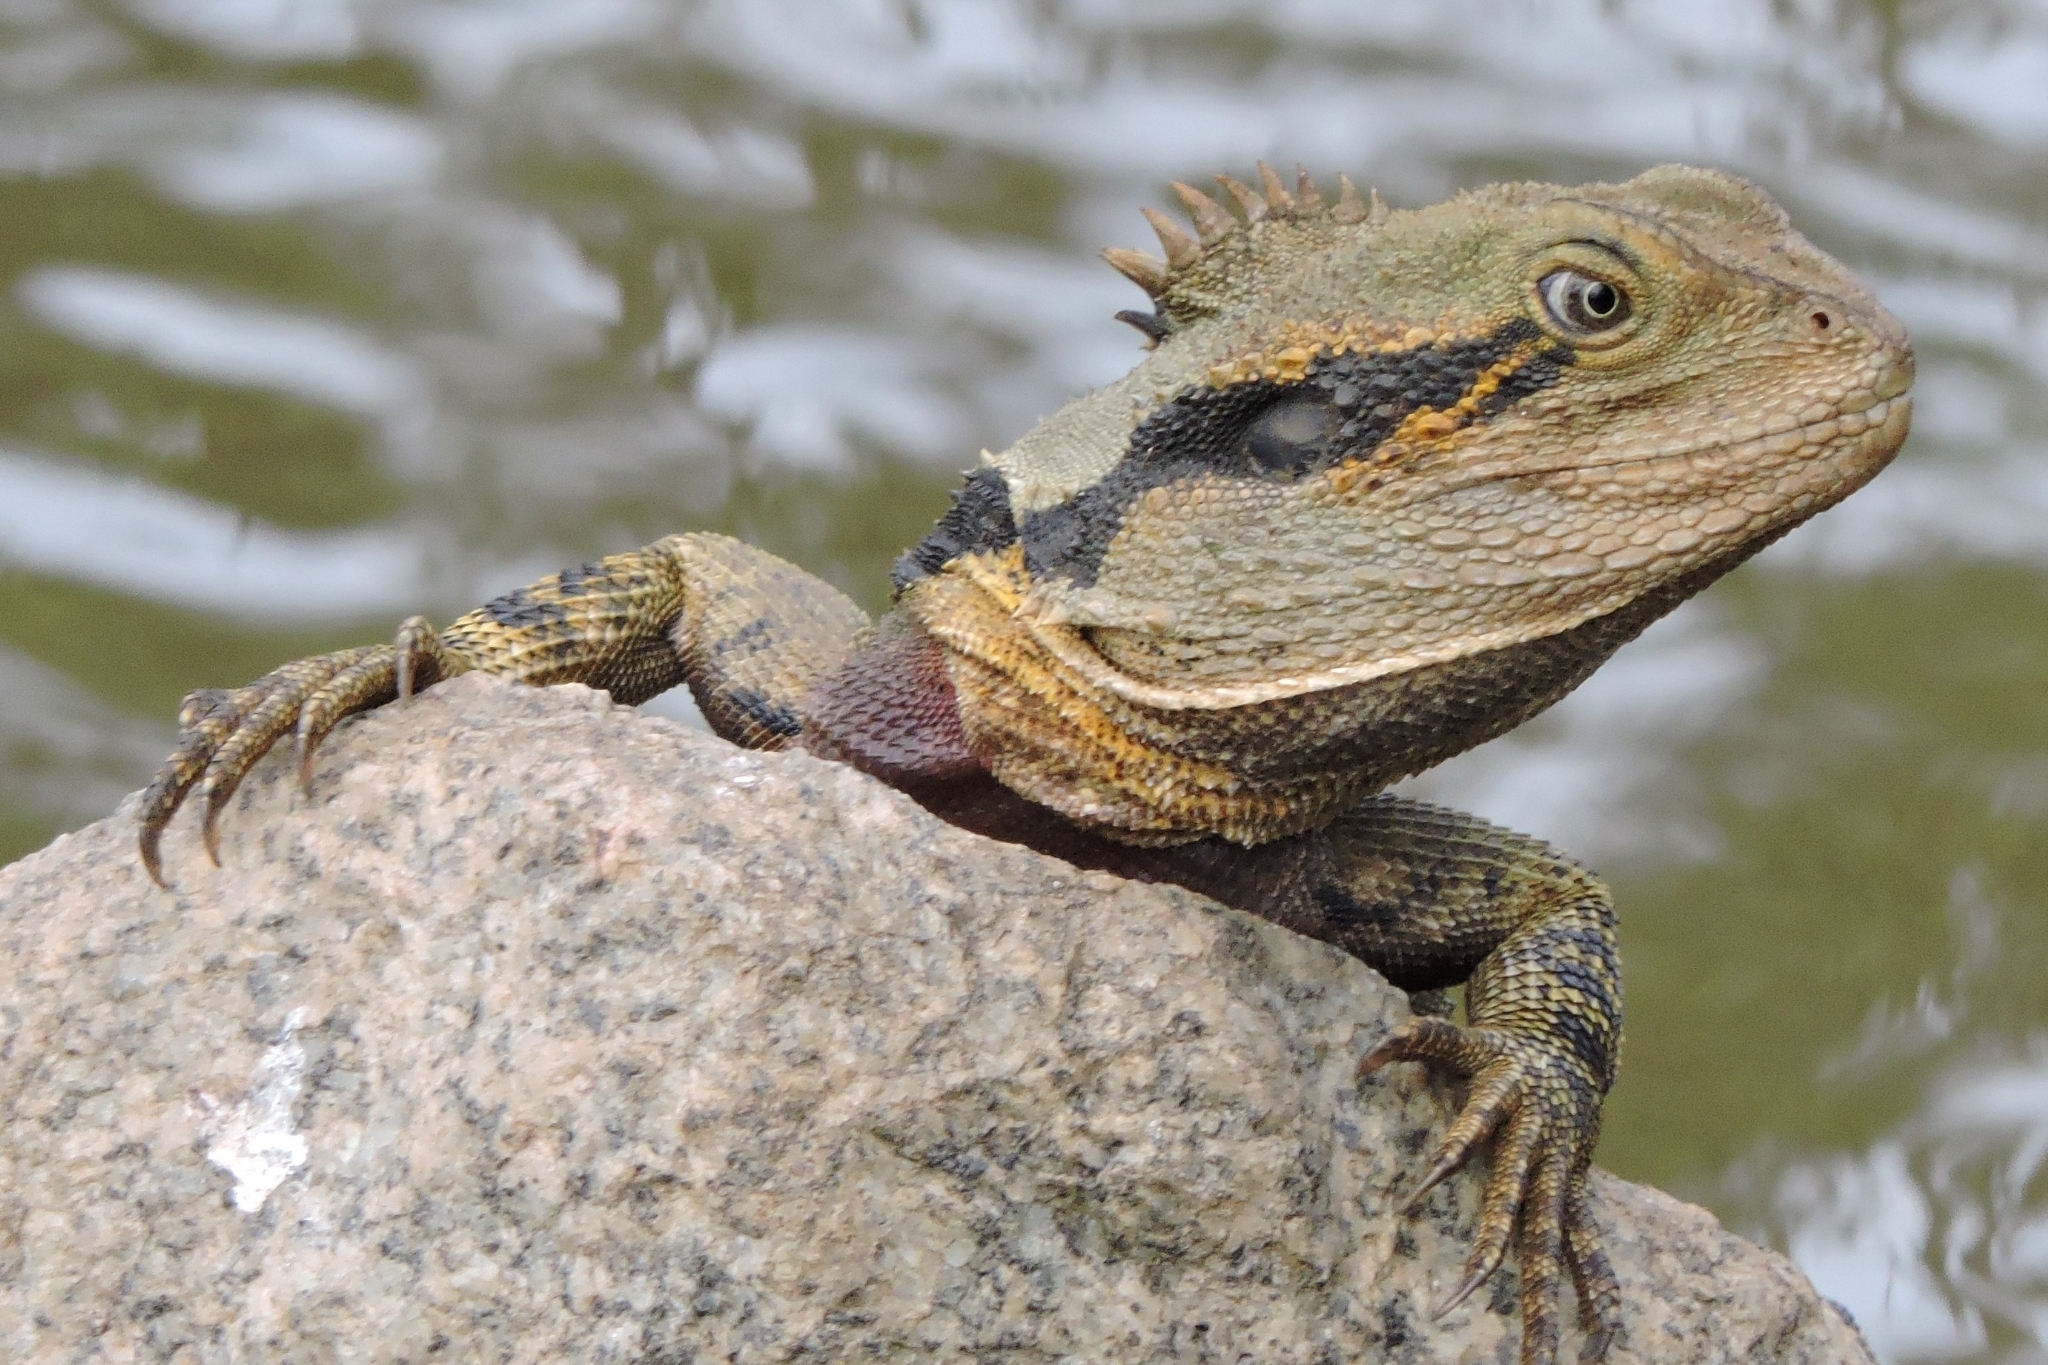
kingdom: Animalia
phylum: Chordata
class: Squamata
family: Agamidae
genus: Intellagama
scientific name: Intellagama lesueurii
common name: Eastern water dragon
